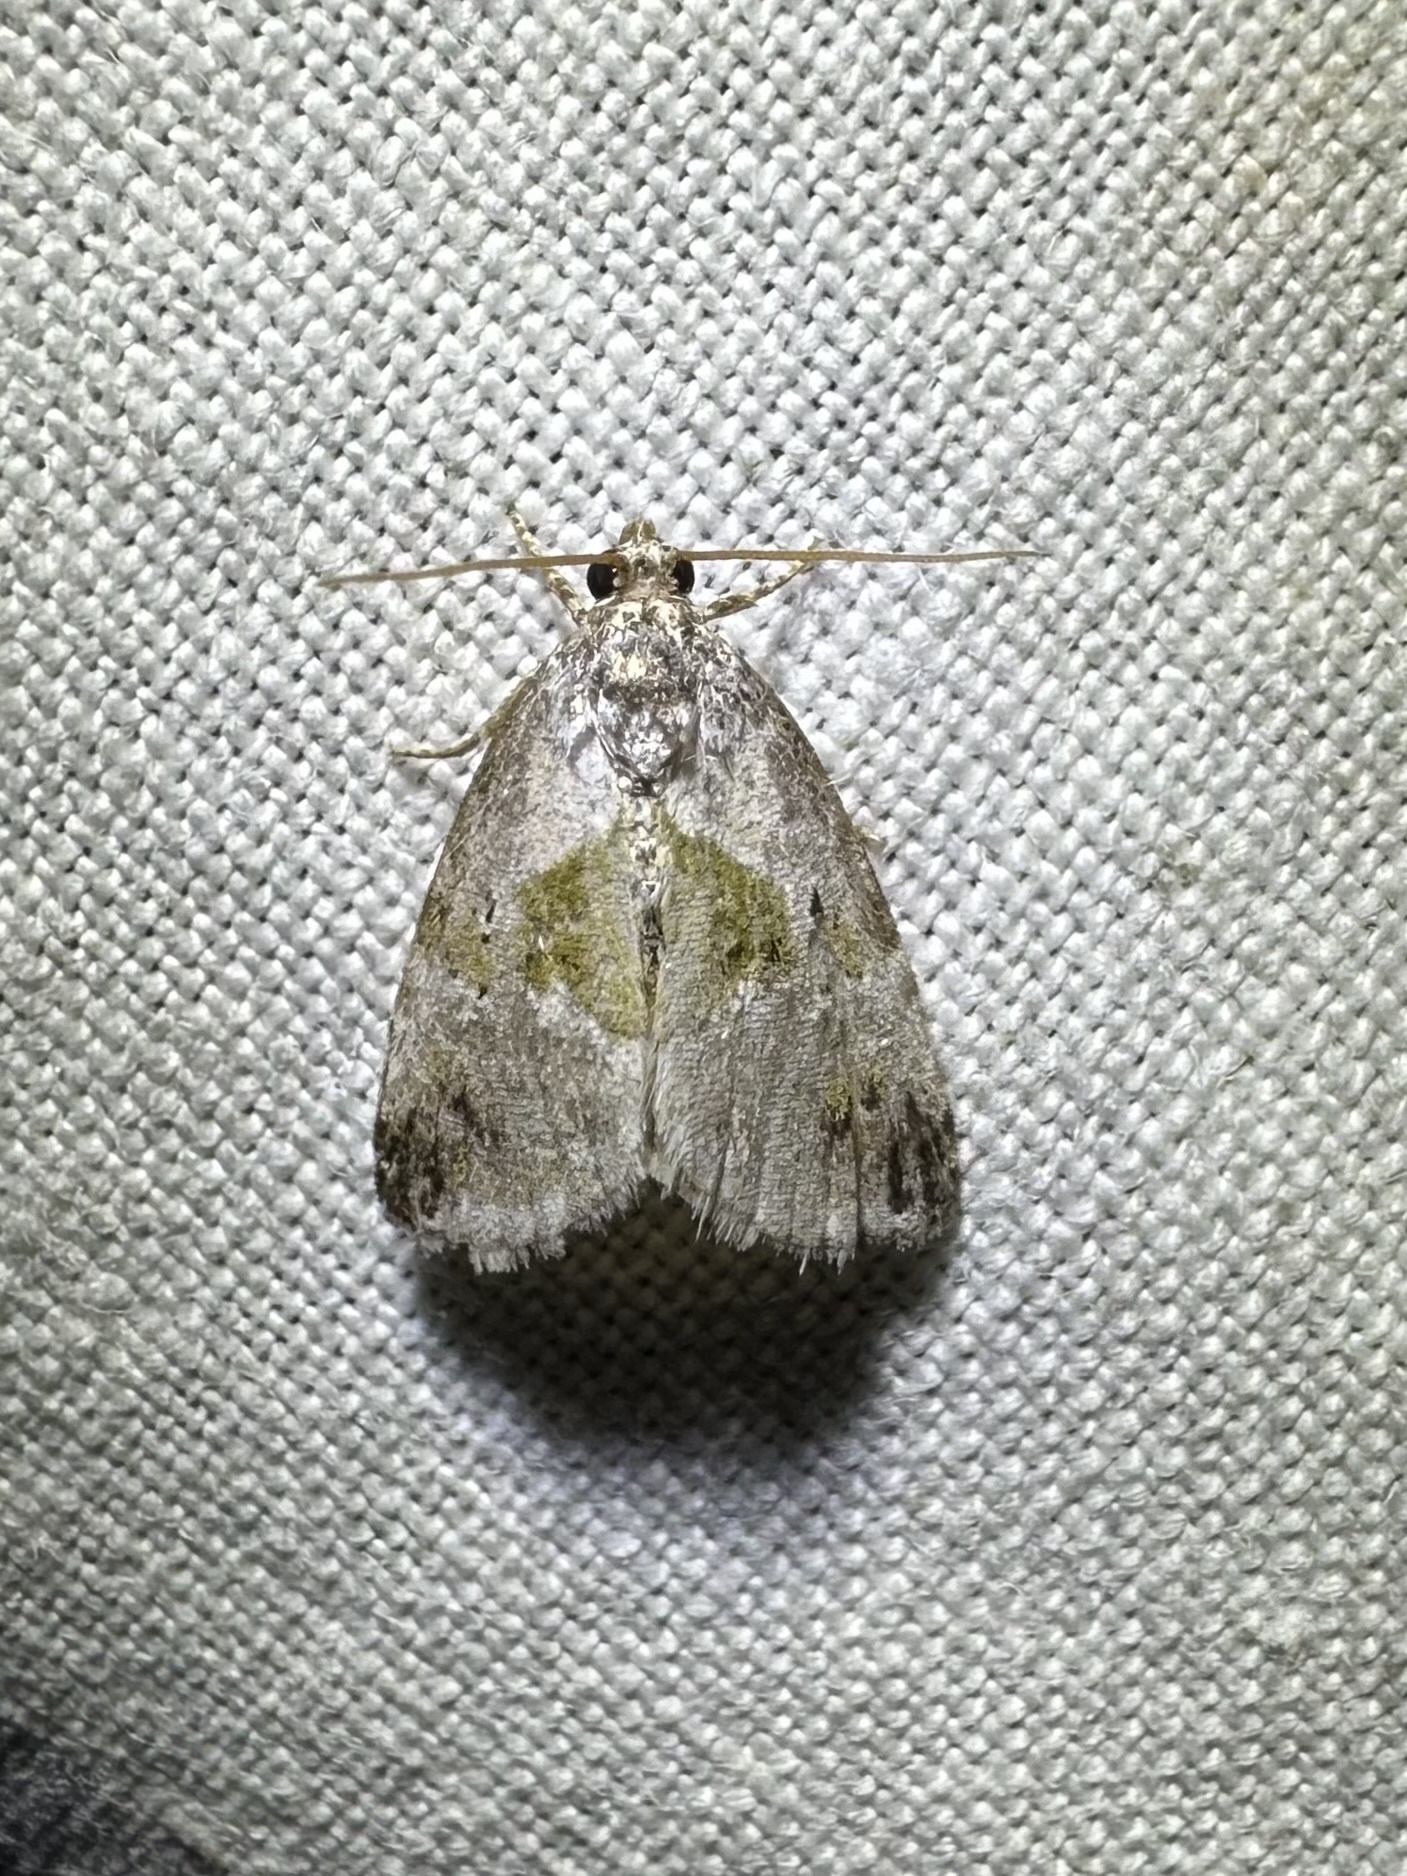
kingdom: Animalia
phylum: Arthropoda
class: Insecta
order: Lepidoptera
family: Noctuidae
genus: Maliattha
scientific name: Maliattha synochitis
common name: Black-dotted glyph
